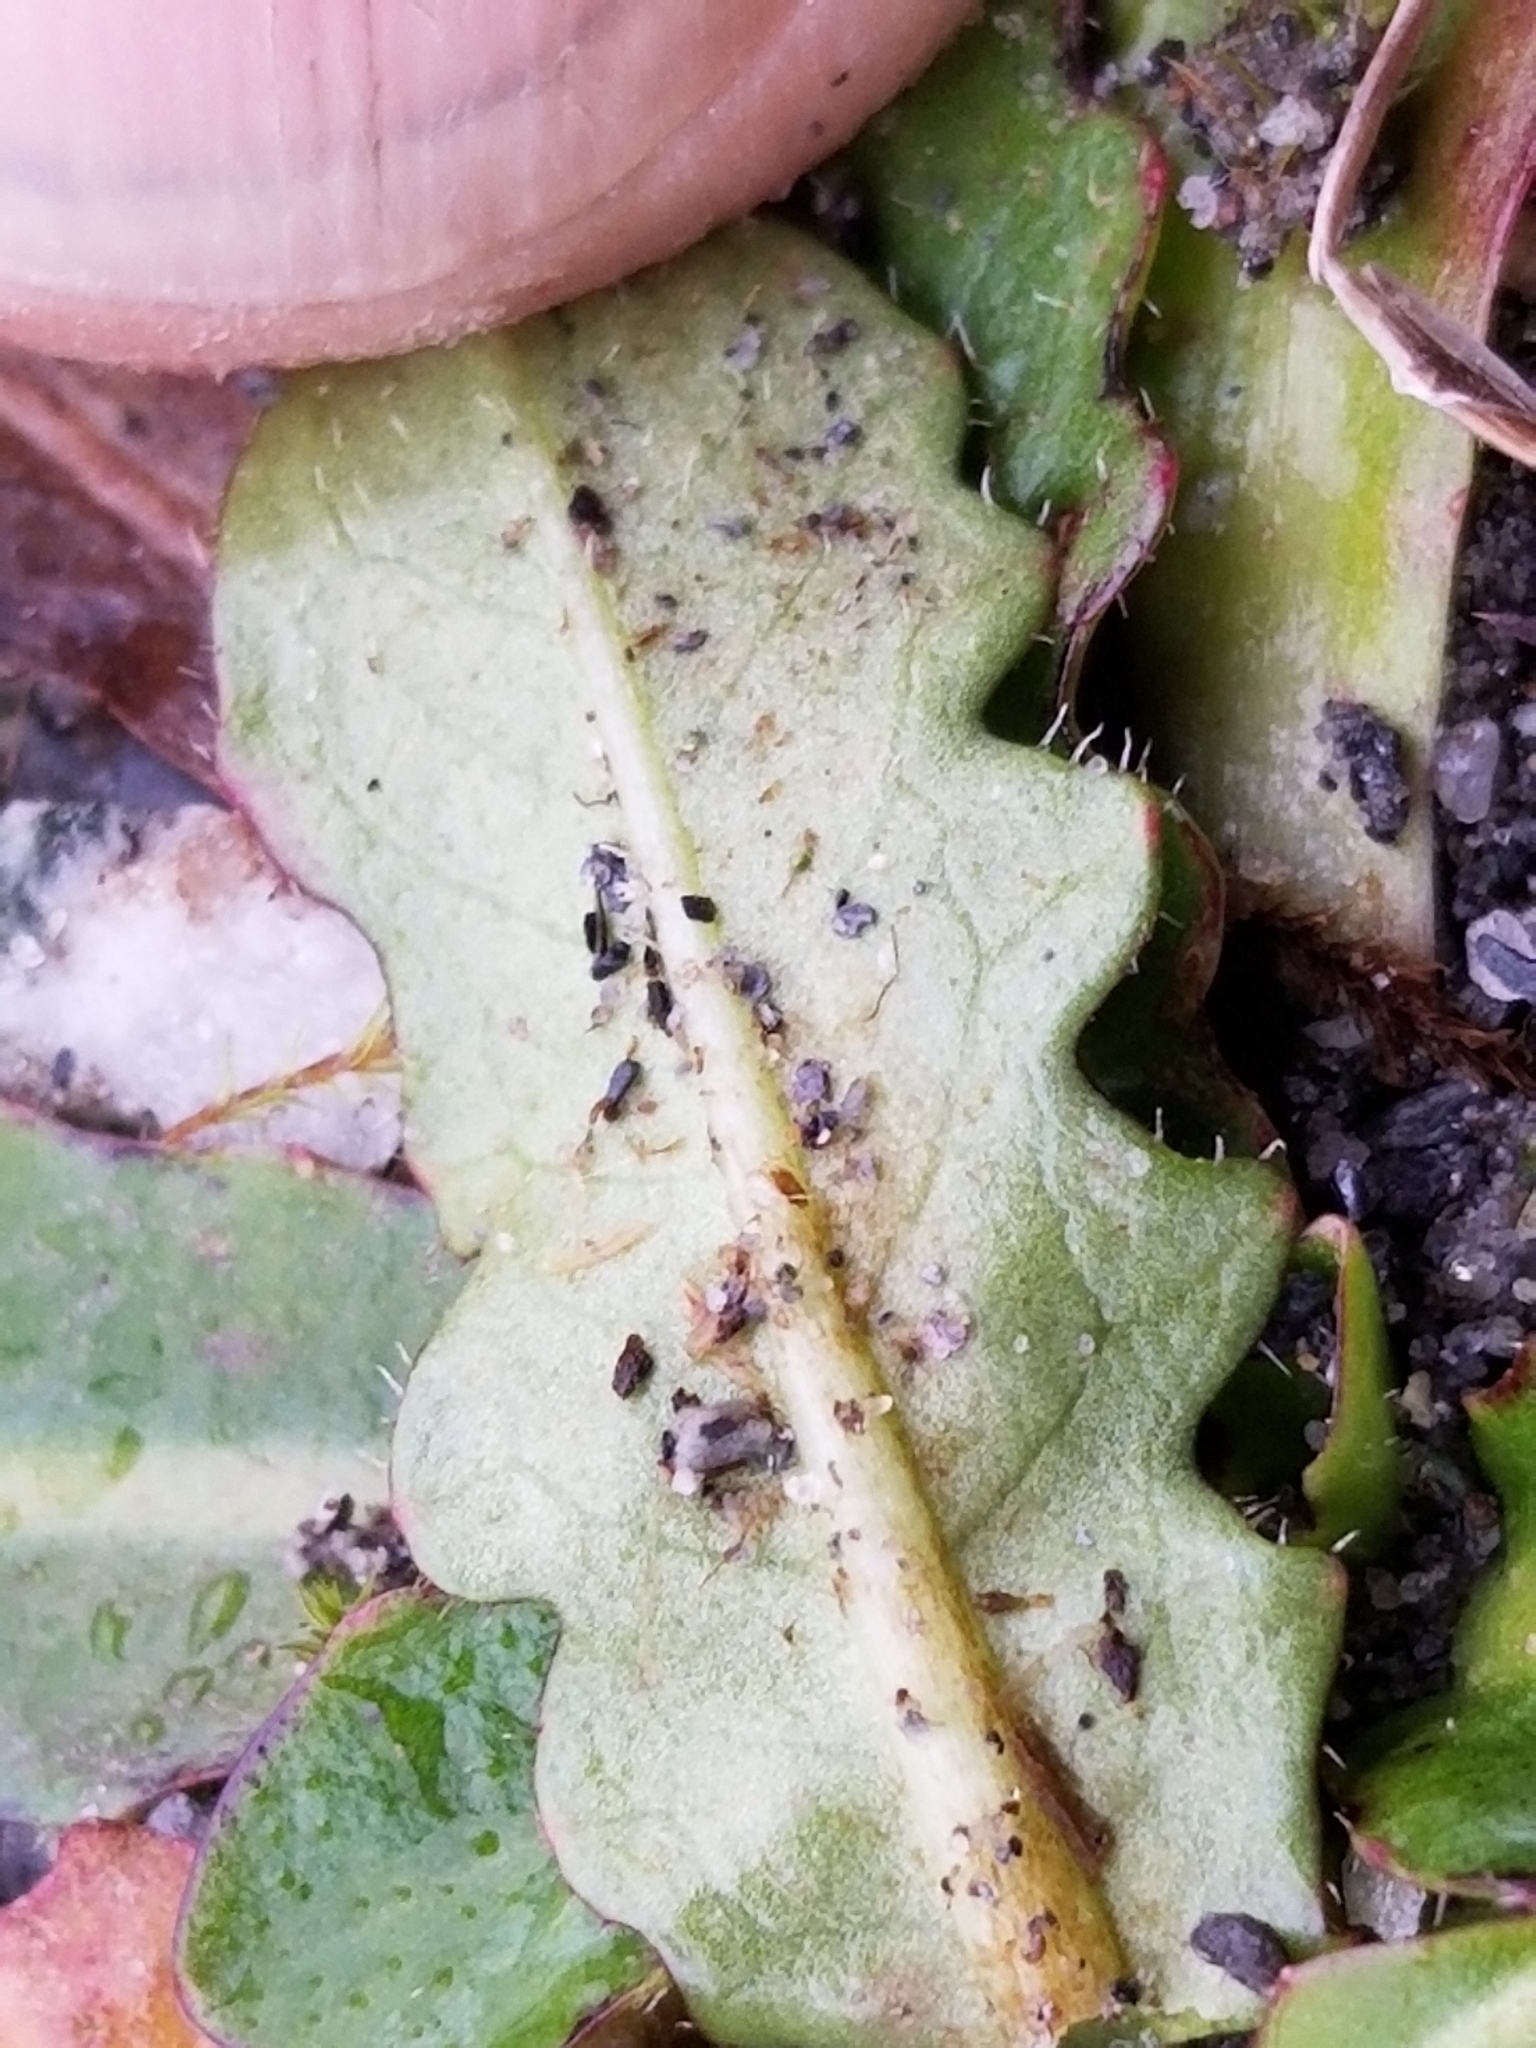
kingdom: Plantae
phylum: Tracheophyta
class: Magnoliopsida
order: Asterales
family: Asteraceae
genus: Hypochaeris
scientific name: Hypochaeris radicata
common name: Flatweed
